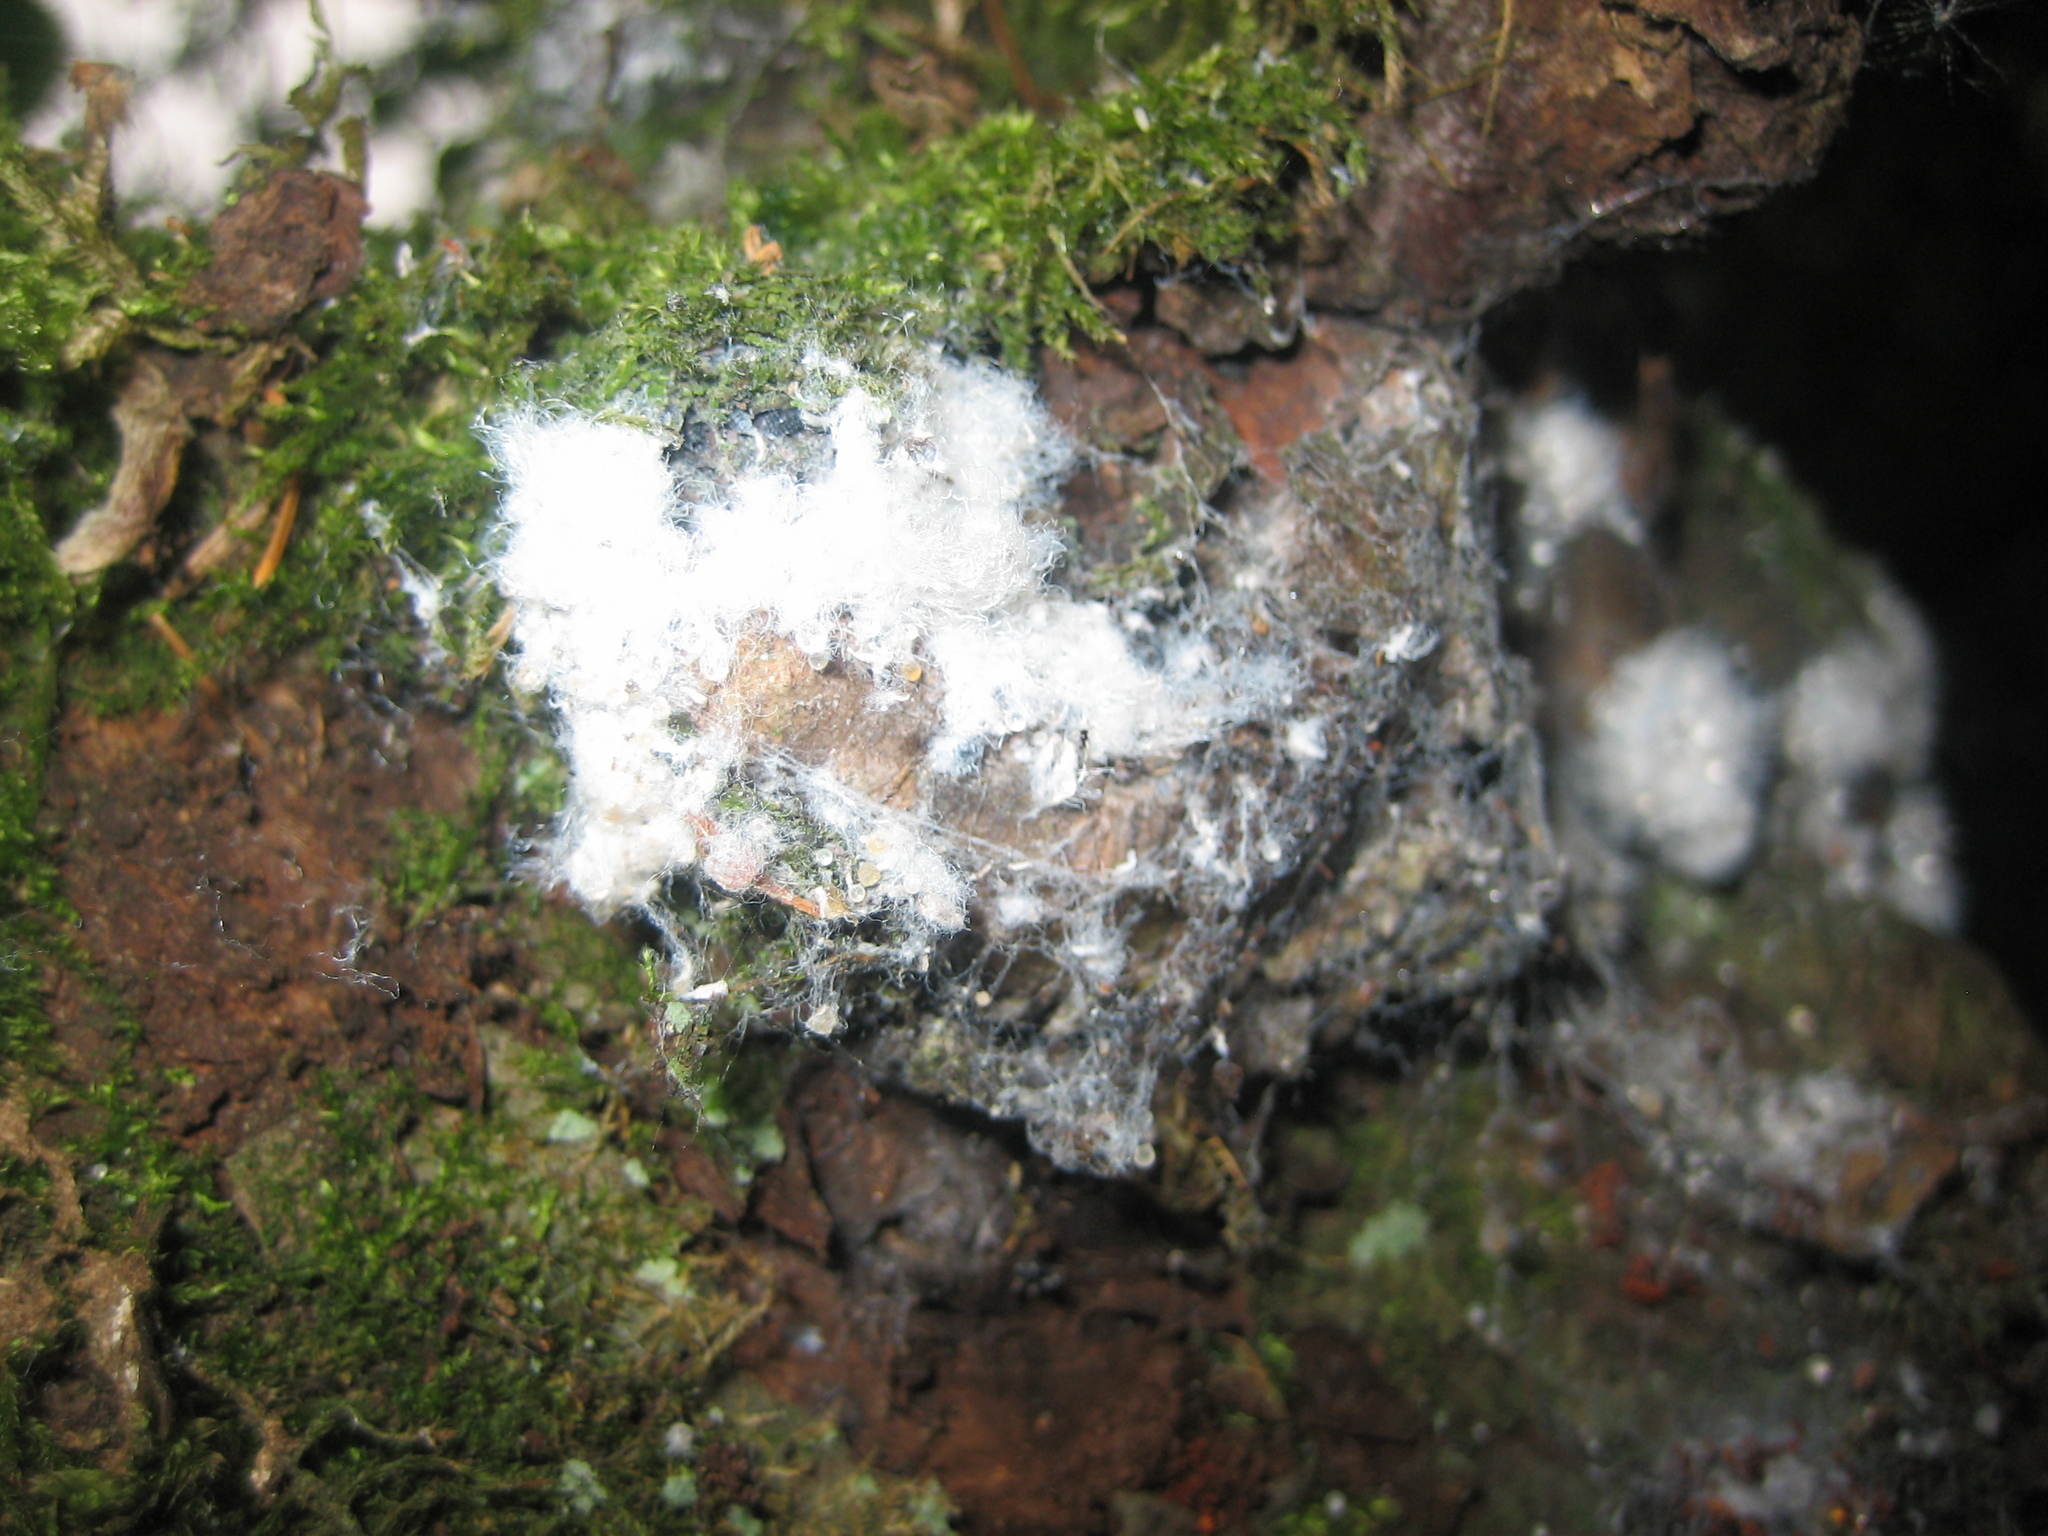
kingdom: Animalia
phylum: Arthropoda
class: Insecta
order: Hemiptera
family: Aphididae
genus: Eriosoma
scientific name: Eriosoma lanigerum
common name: Woolly apple aphid
